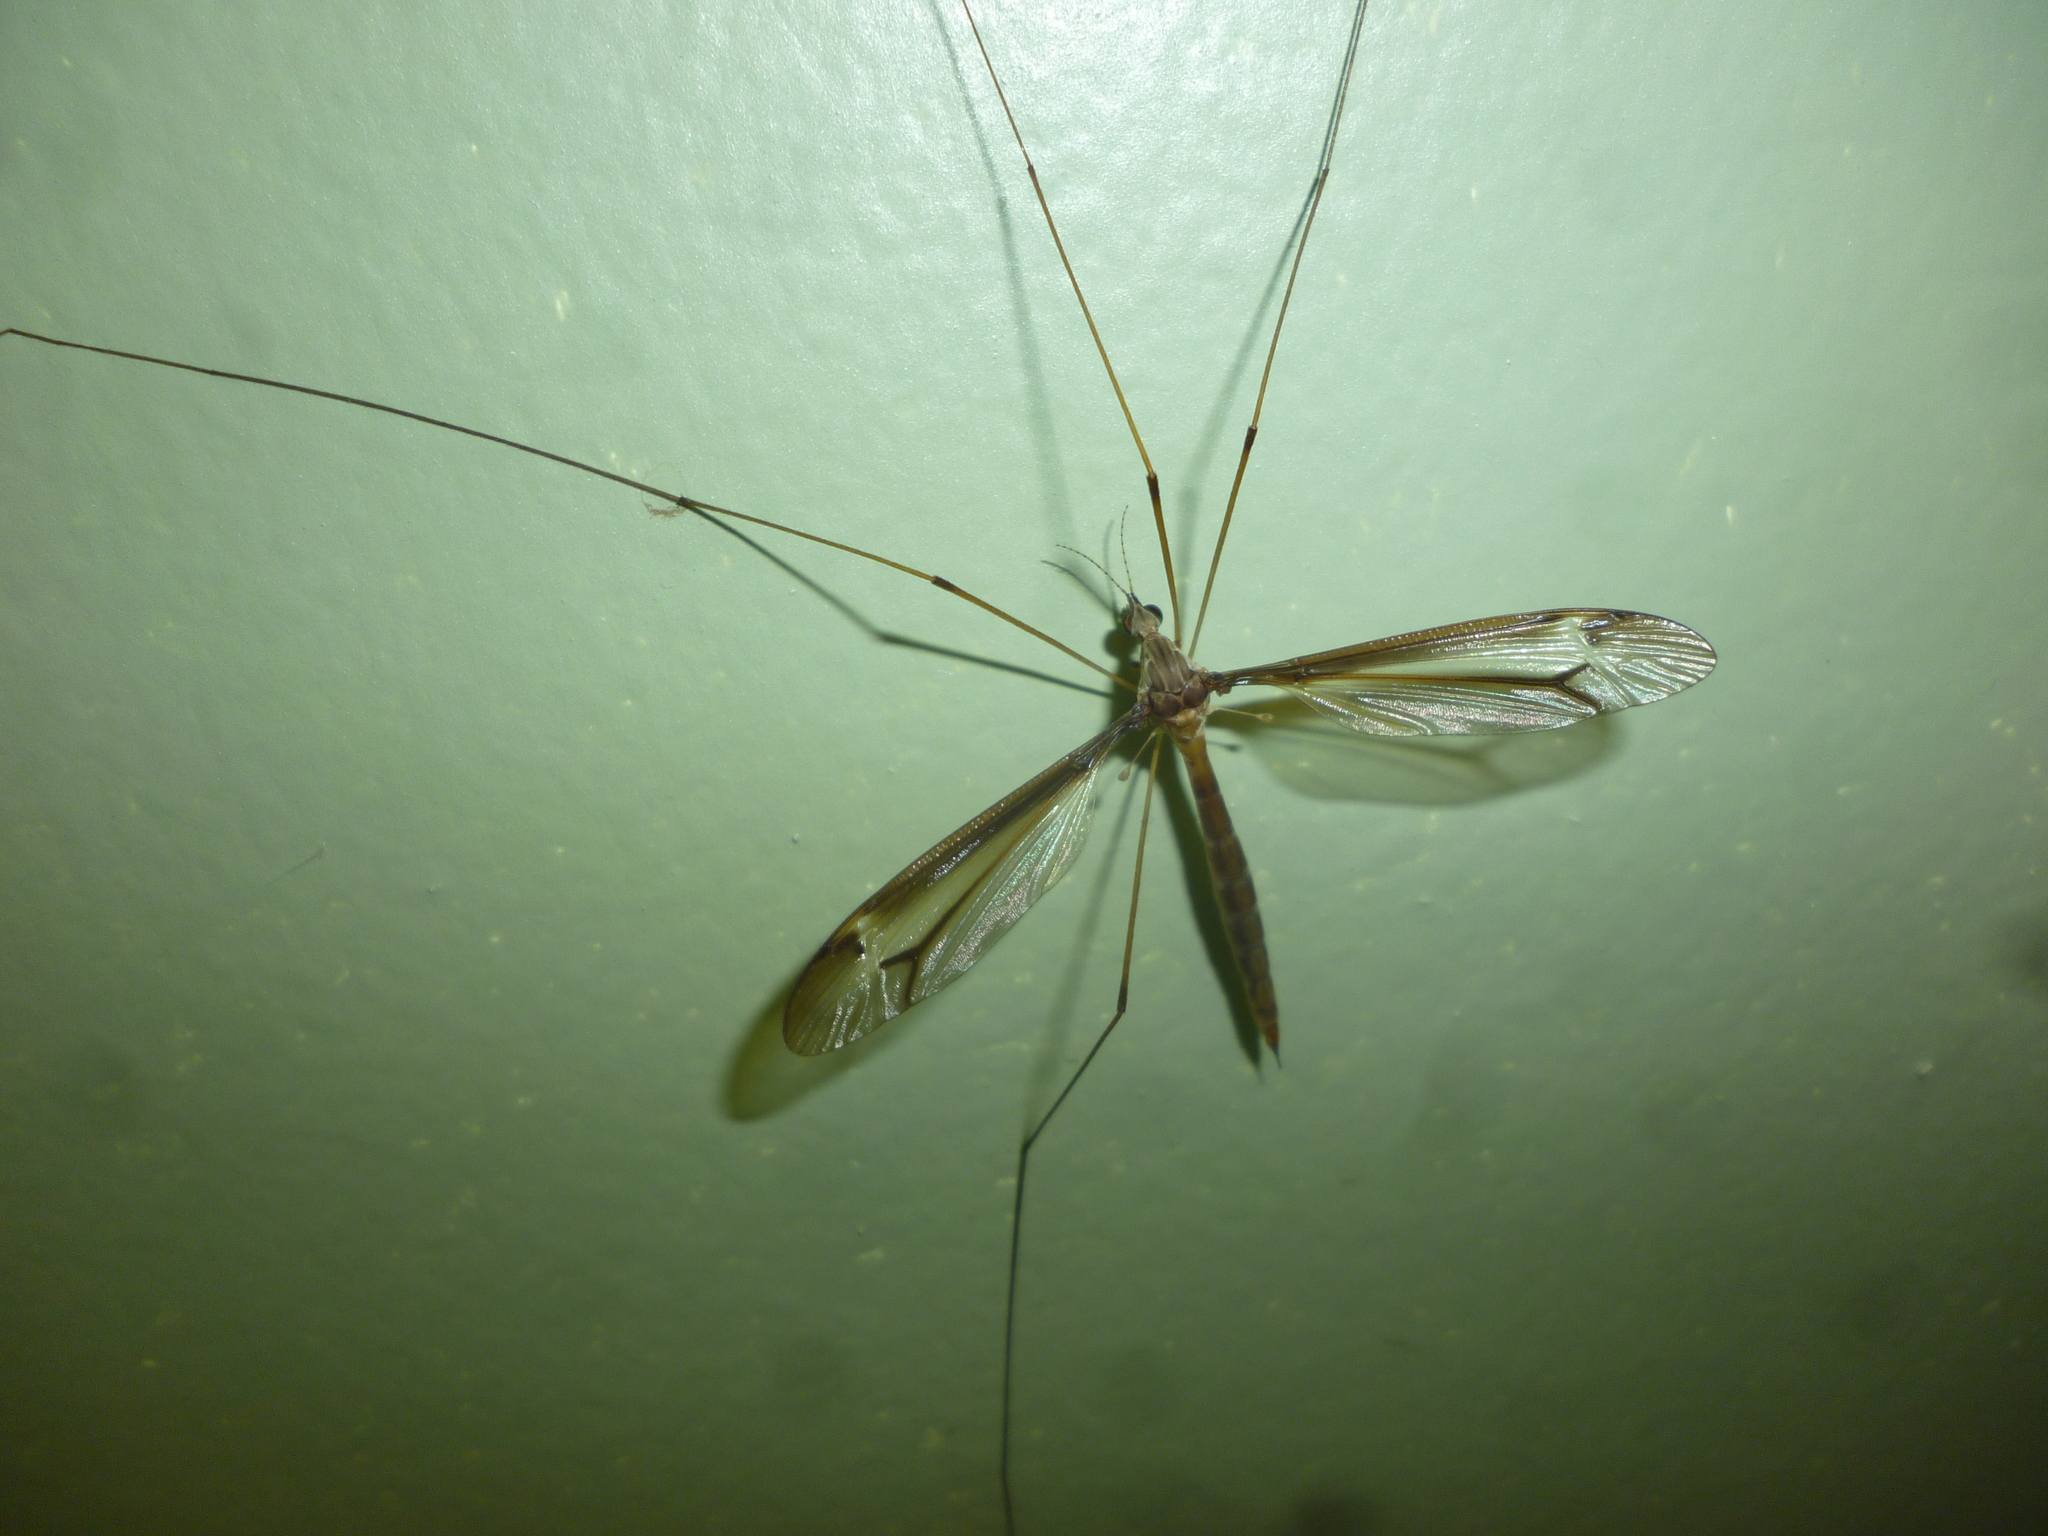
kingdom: Animalia
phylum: Arthropoda
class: Insecta
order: Diptera
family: Tipulidae
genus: Tipula
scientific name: Tipula tricolor
